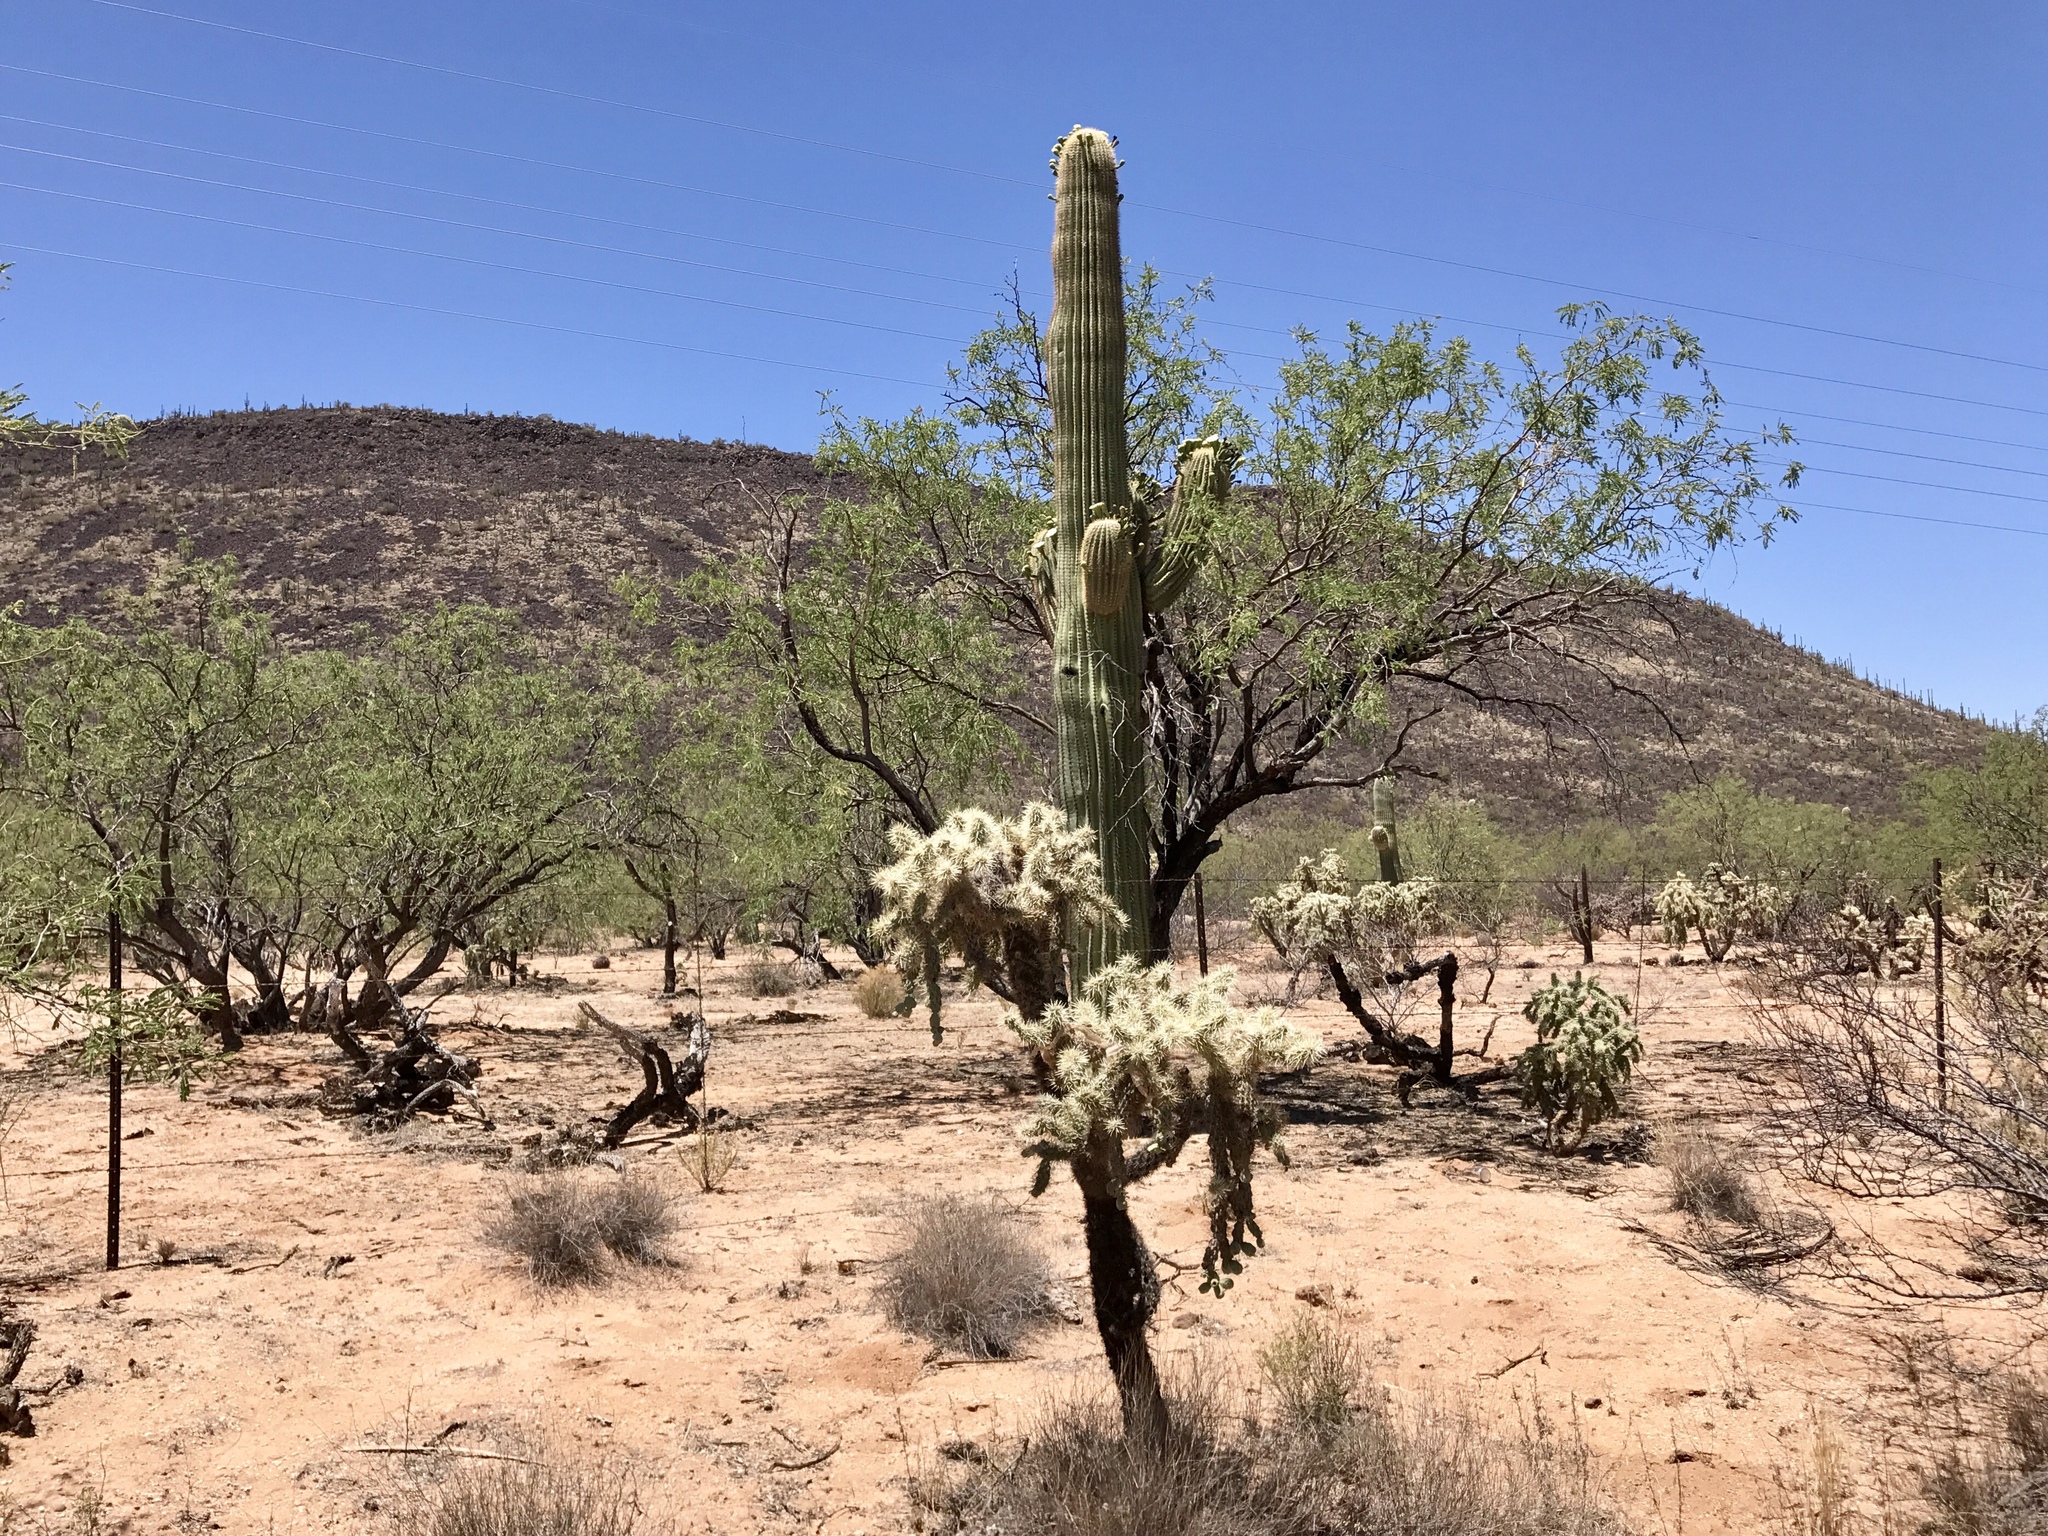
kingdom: Plantae
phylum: Tracheophyta
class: Magnoliopsida
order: Caryophyllales
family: Cactaceae
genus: Carnegiea
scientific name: Carnegiea gigantea
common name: Saguaro
